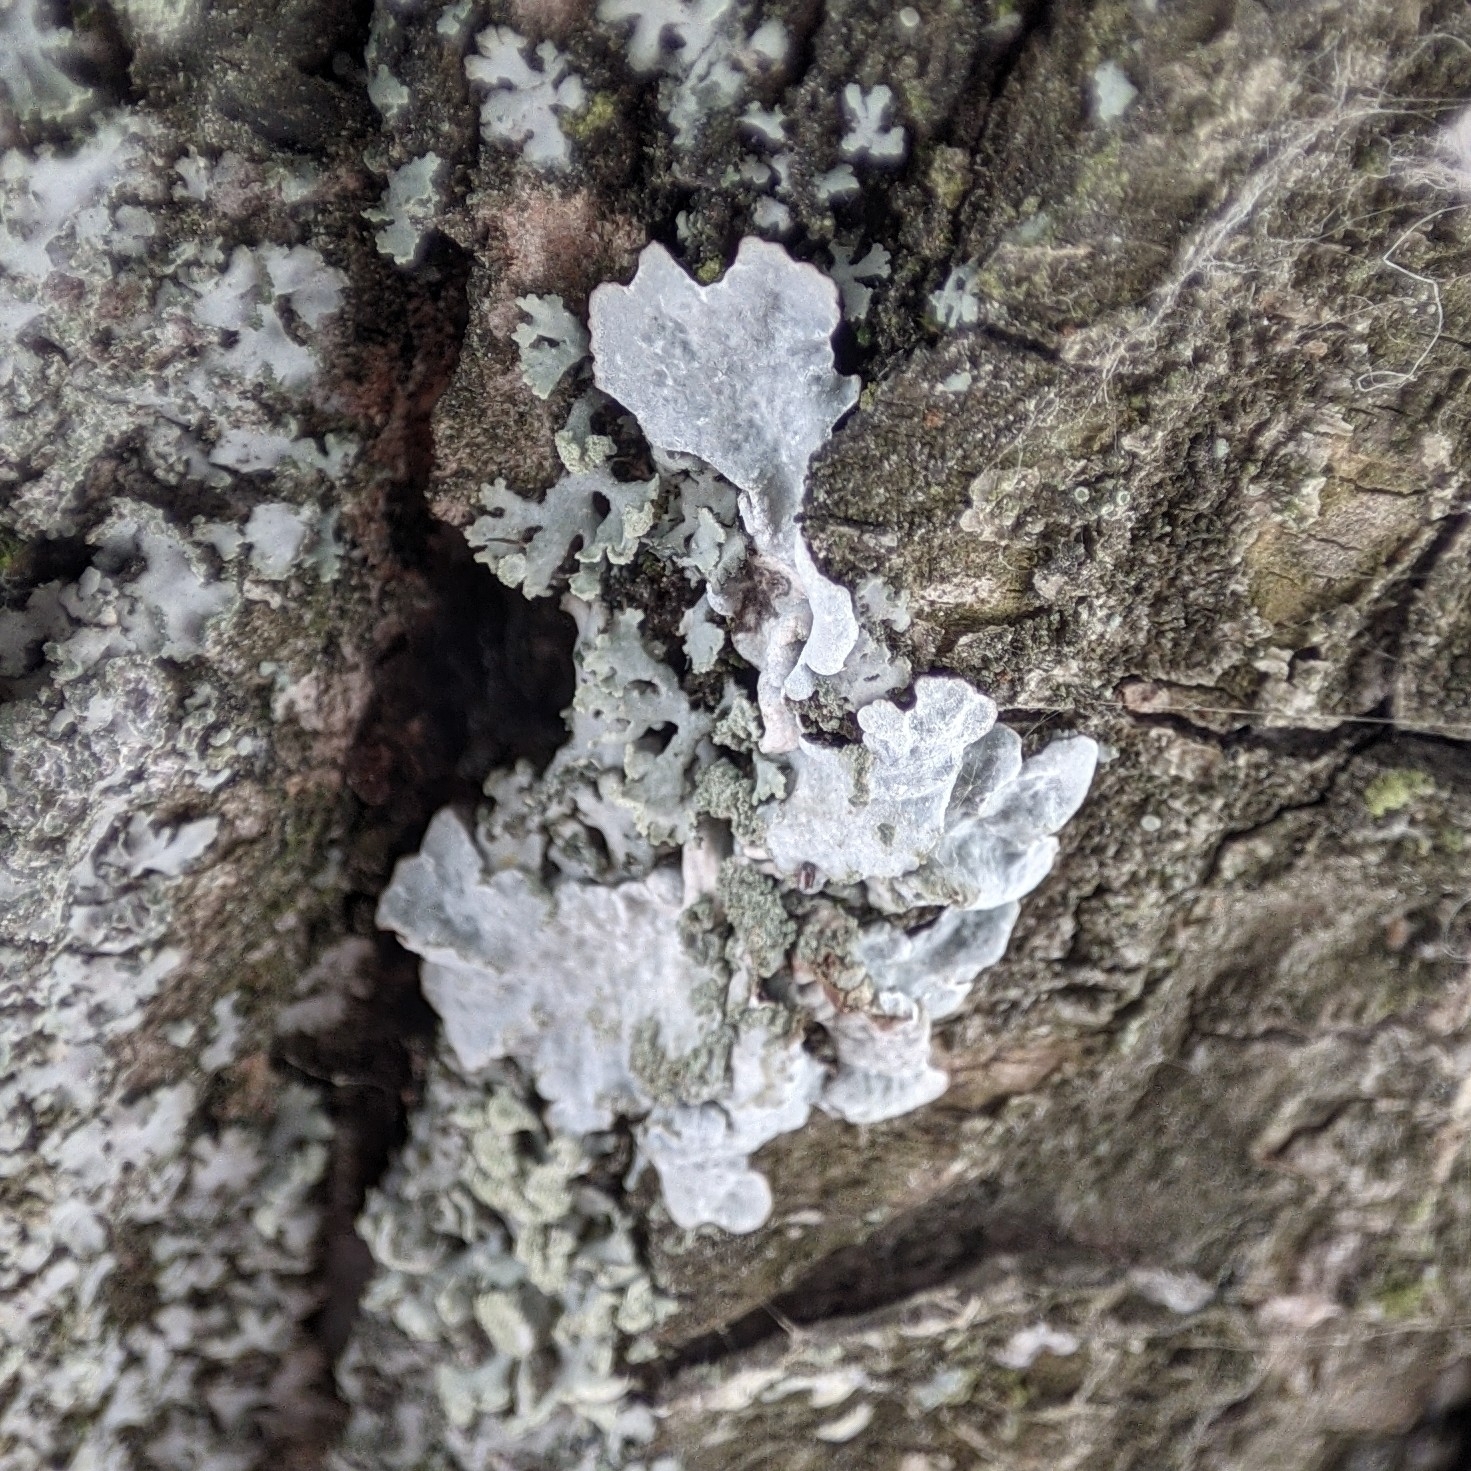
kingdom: Fungi
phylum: Ascomycota
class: Lecanoromycetes
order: Lecanorales
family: Parmeliaceae
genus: Parmelia
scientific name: Parmelia sulcata
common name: Netted shield lichen
